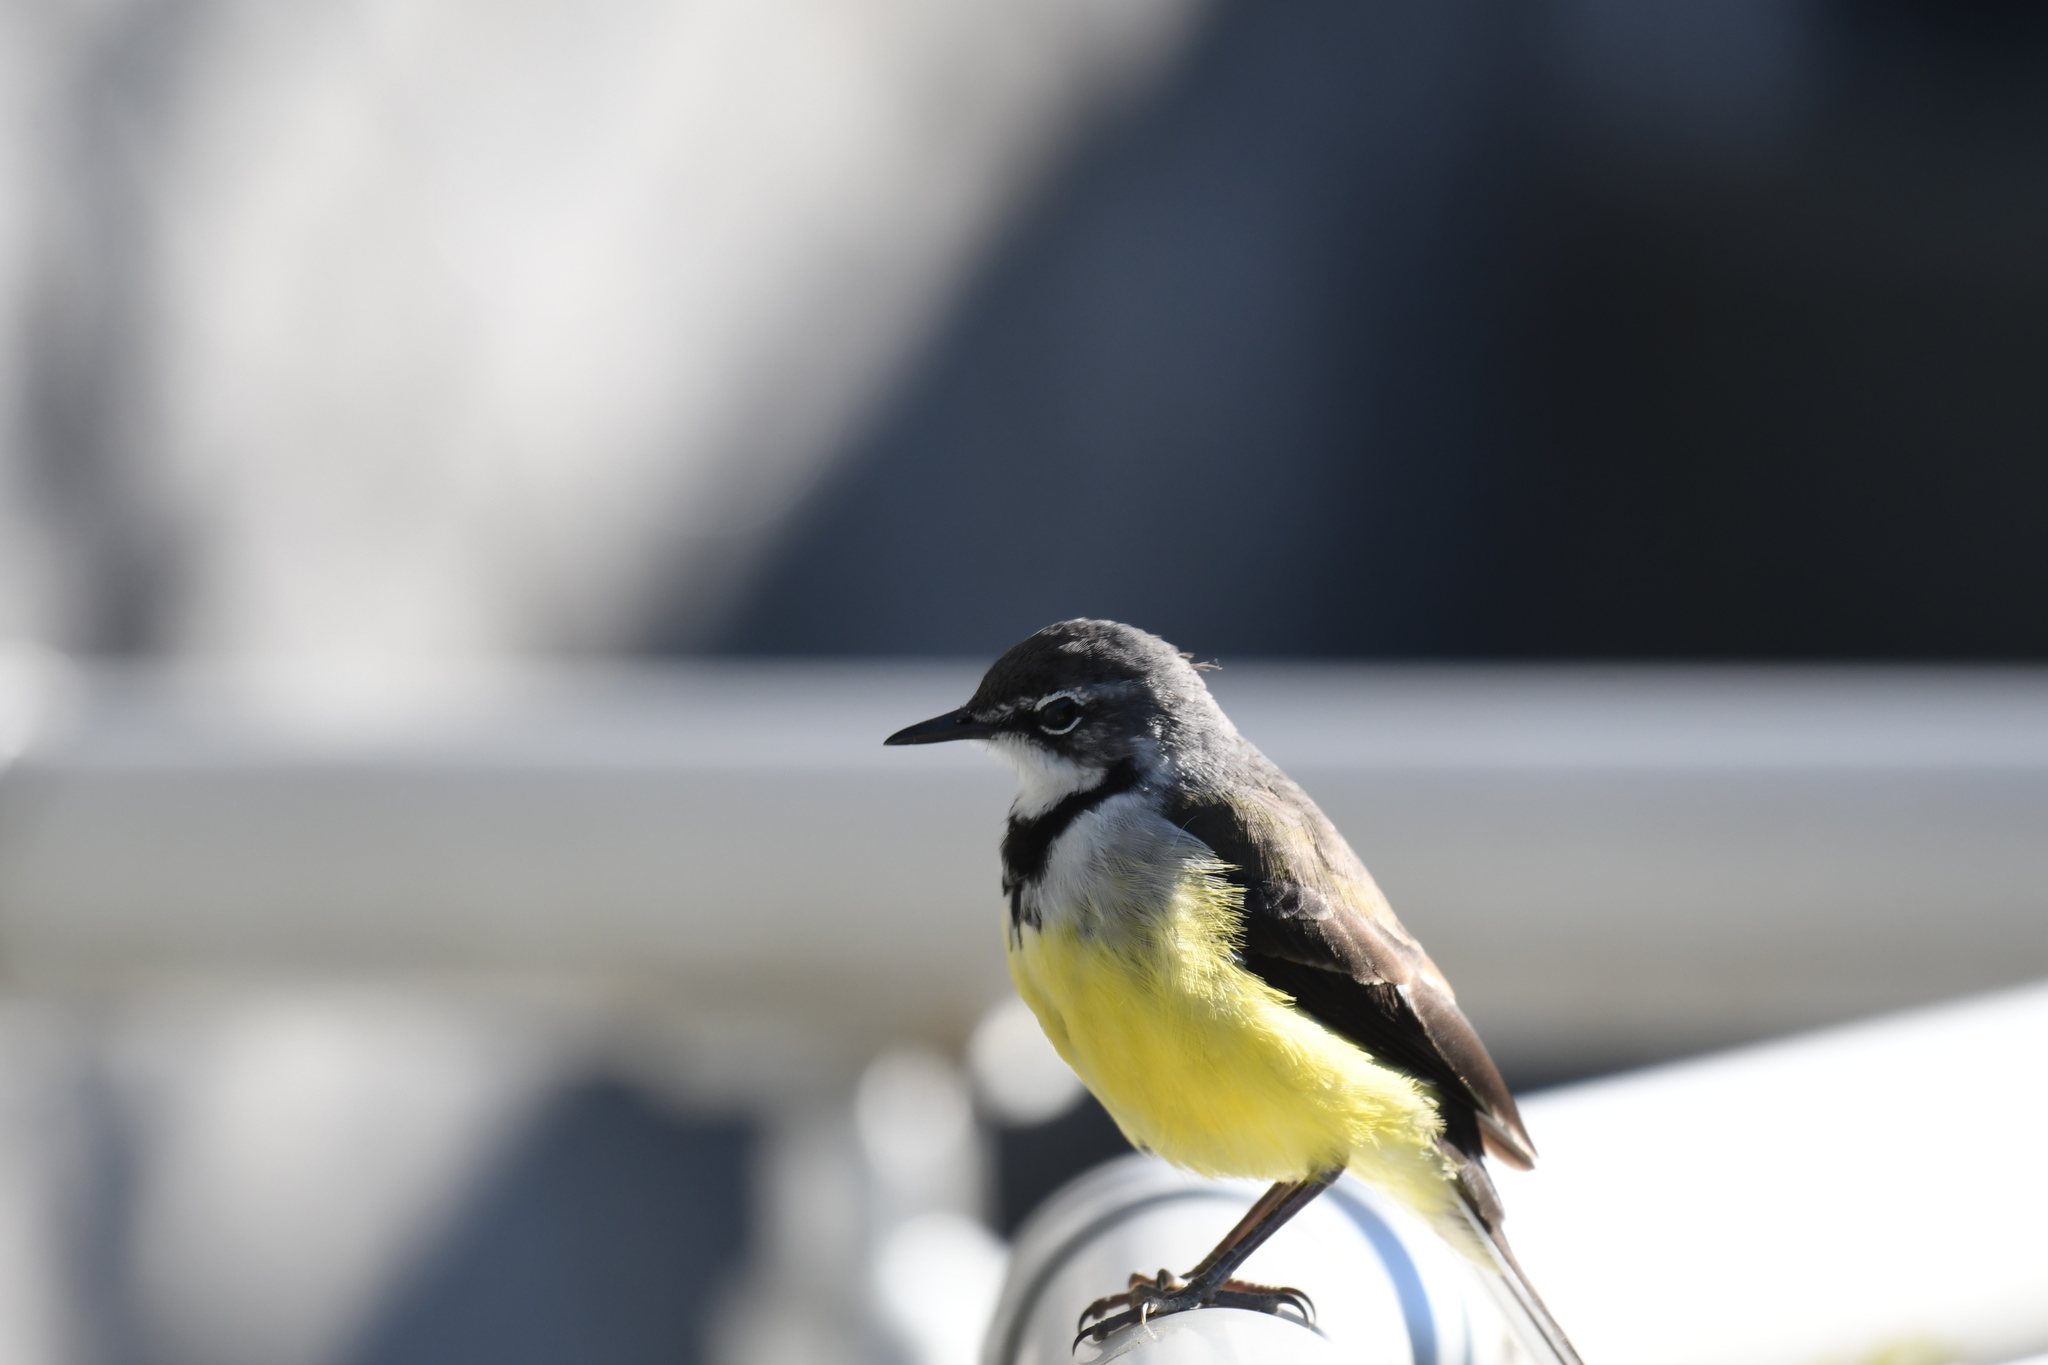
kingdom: Animalia
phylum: Chordata
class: Aves
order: Passeriformes
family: Motacillidae
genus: Motacilla
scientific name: Motacilla flaviventris
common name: Madagascar wagtail
